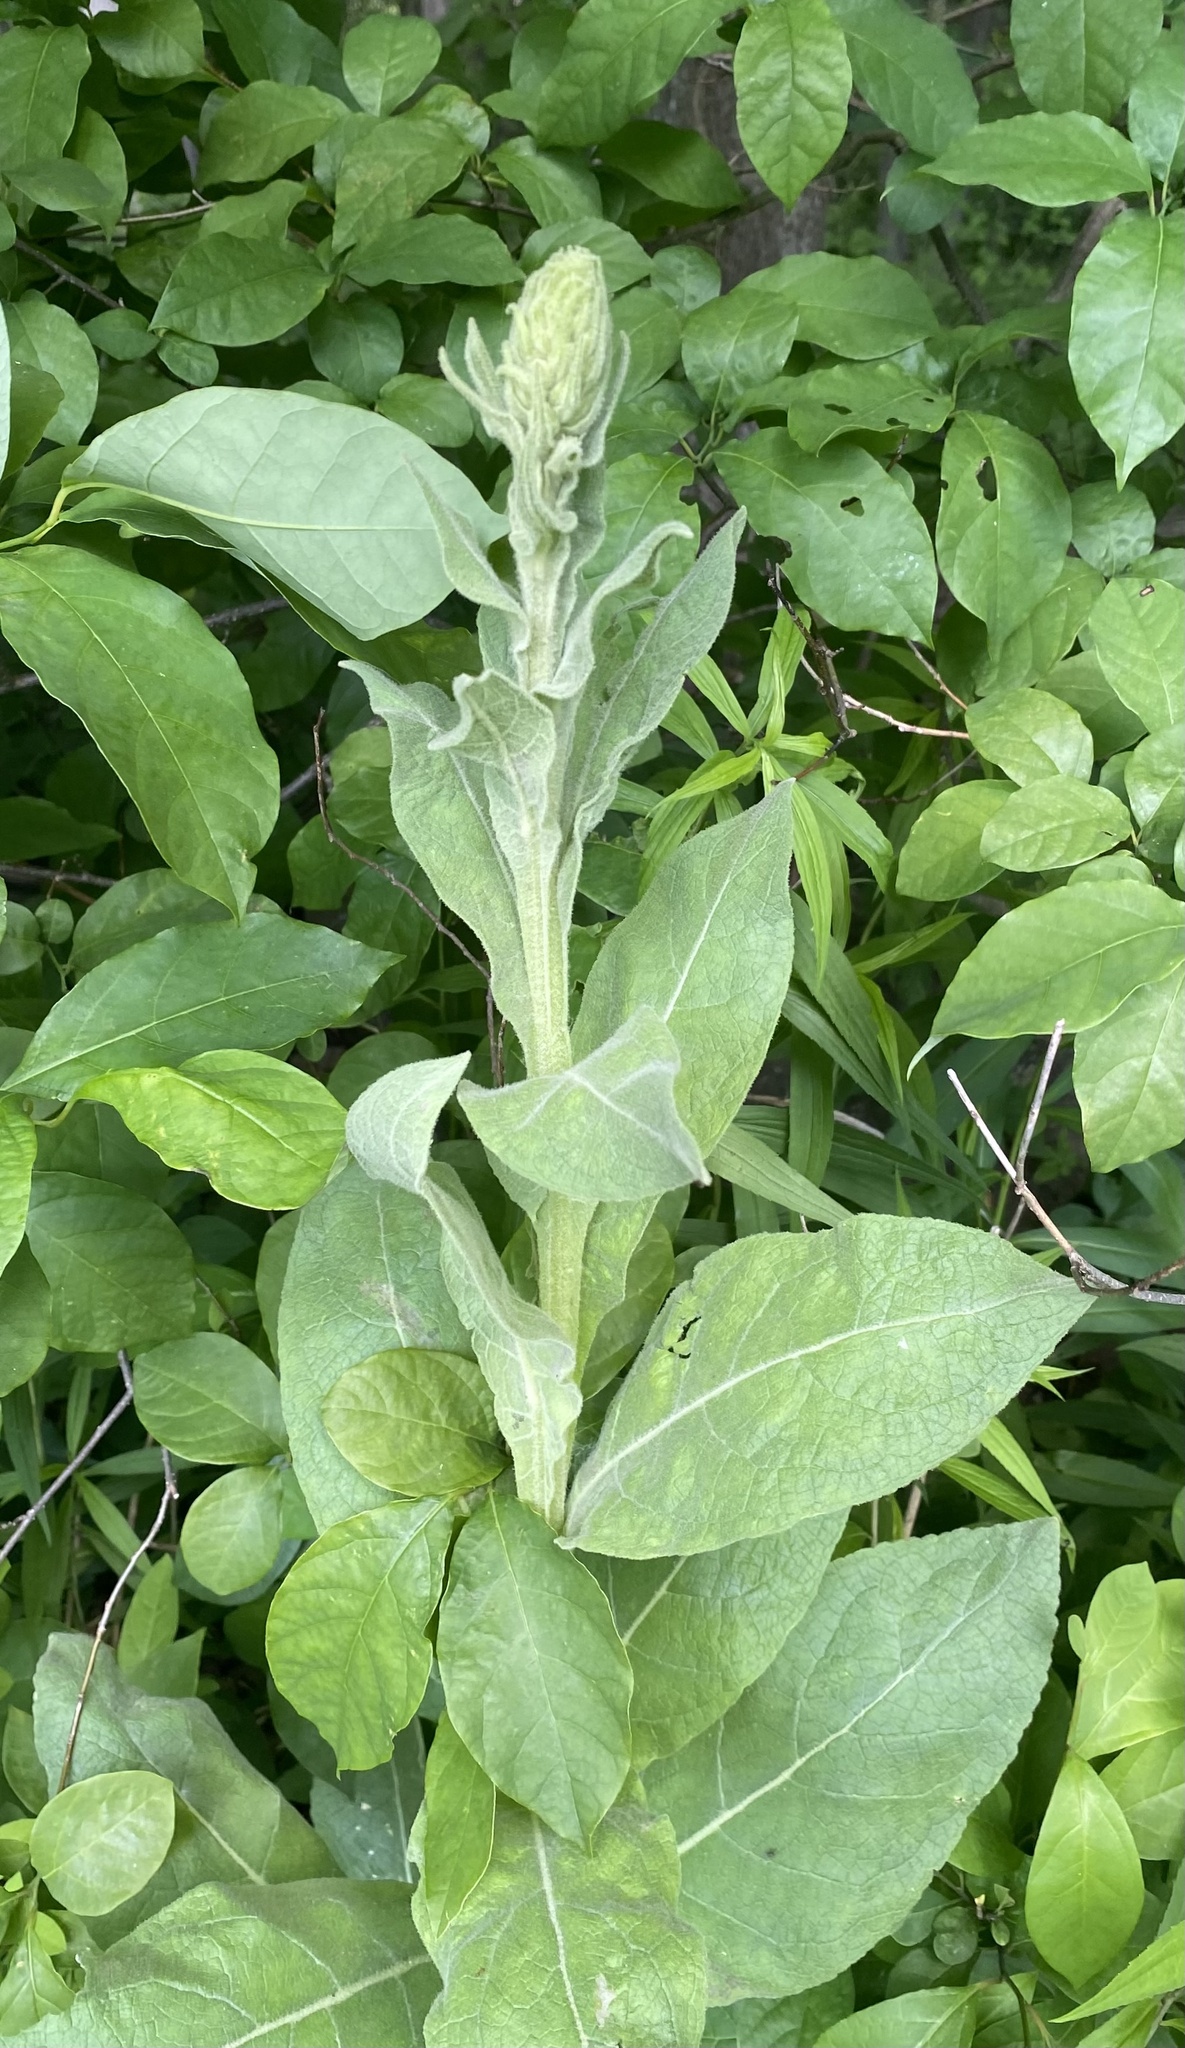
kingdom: Plantae
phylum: Tracheophyta
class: Magnoliopsida
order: Lamiales
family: Scrophulariaceae
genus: Verbascum
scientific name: Verbascum thapsus
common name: Common mullein
